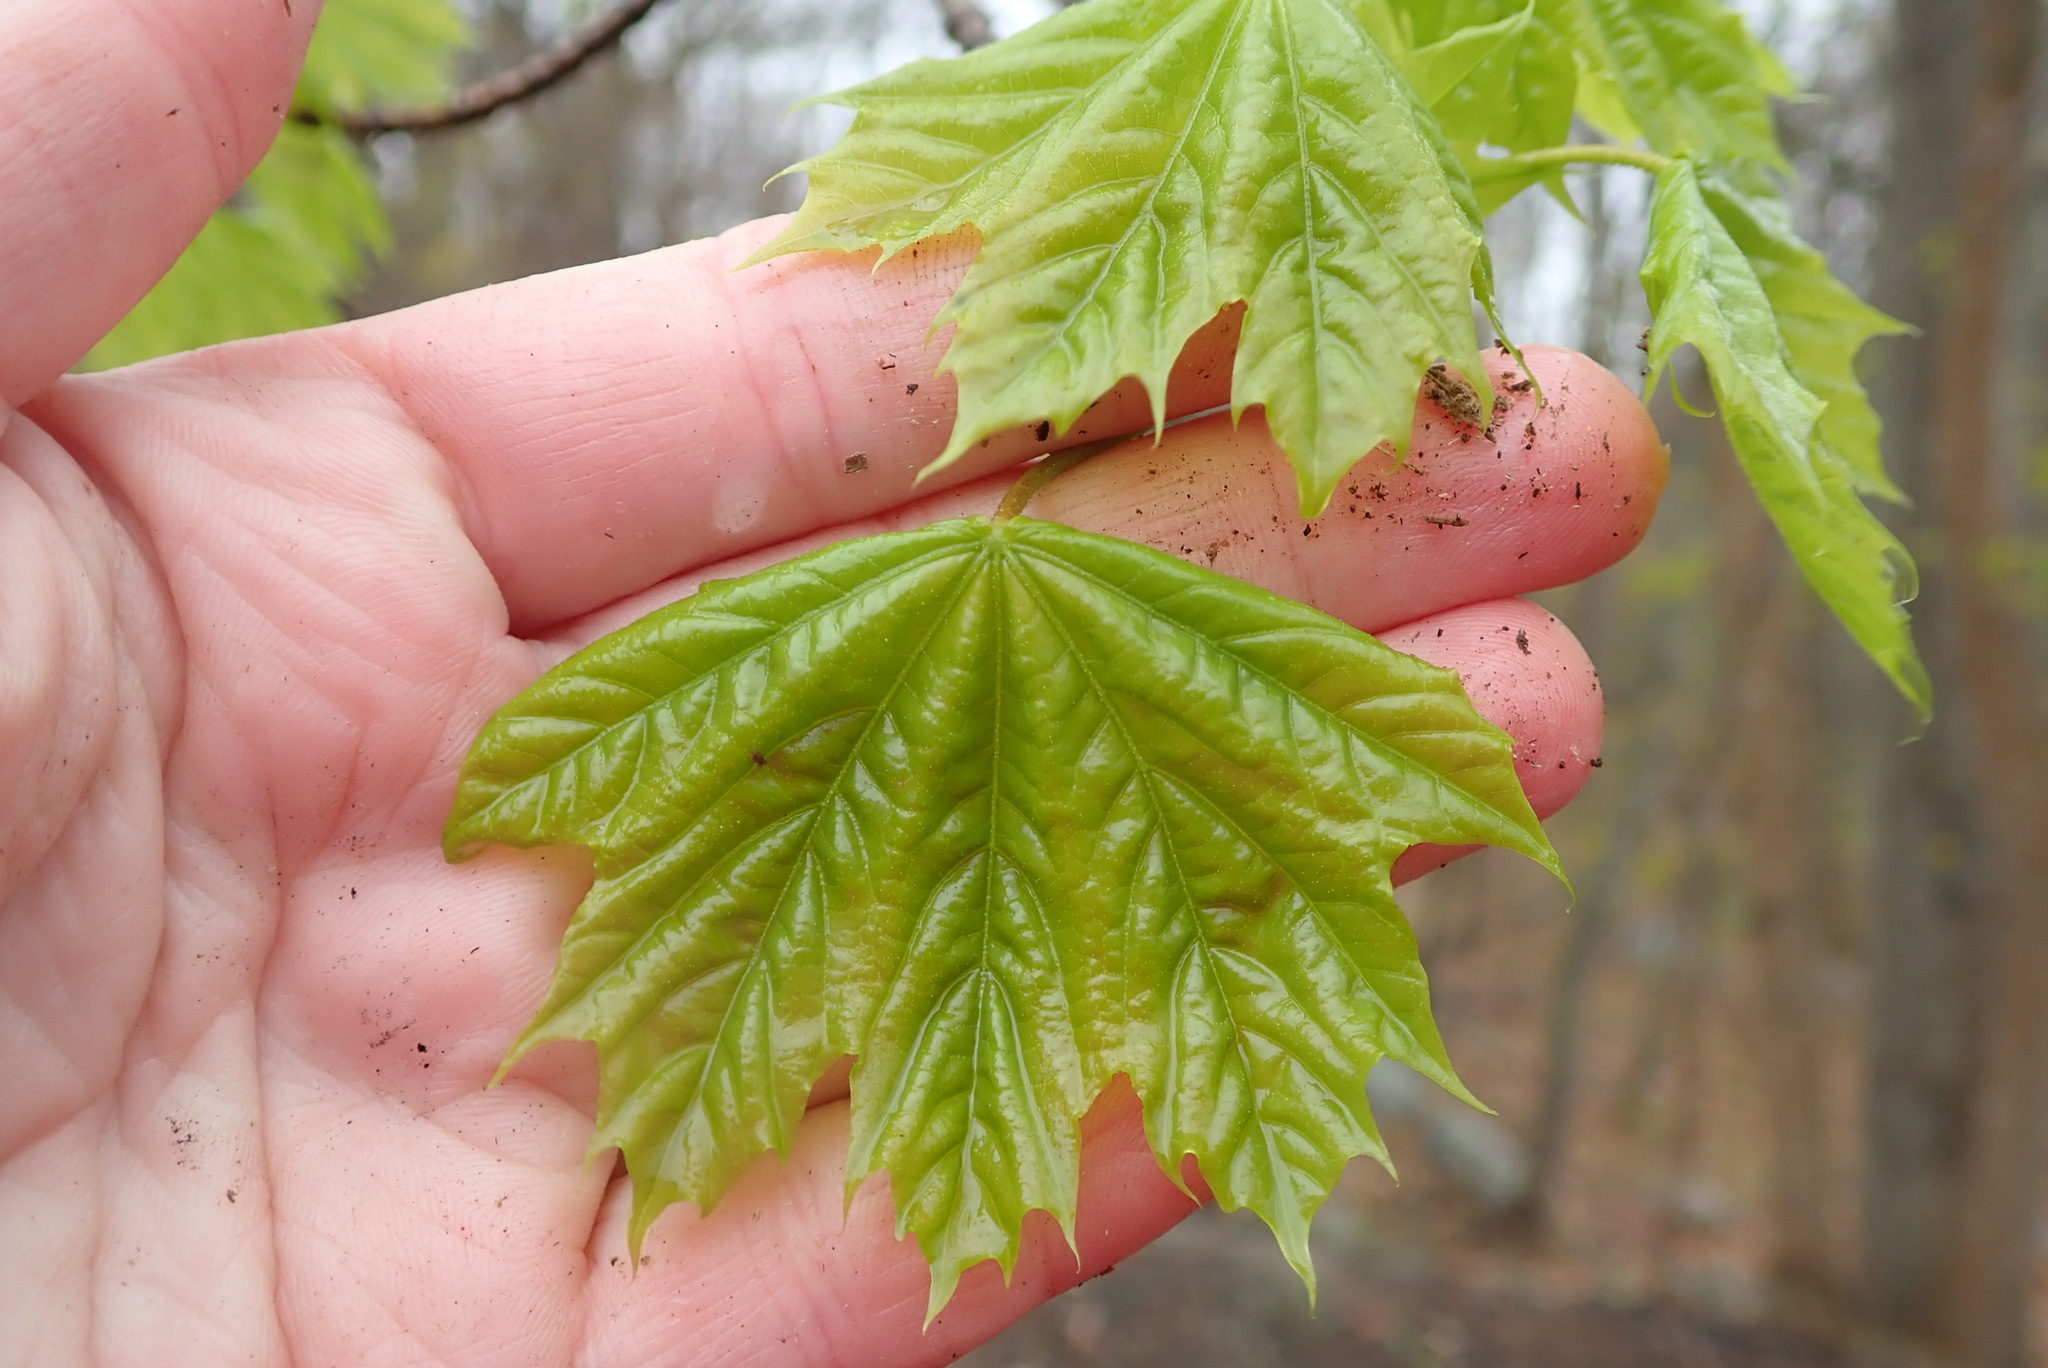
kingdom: Plantae
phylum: Tracheophyta
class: Magnoliopsida
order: Sapindales
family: Sapindaceae
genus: Acer
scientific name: Acer platanoides
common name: Norway maple
